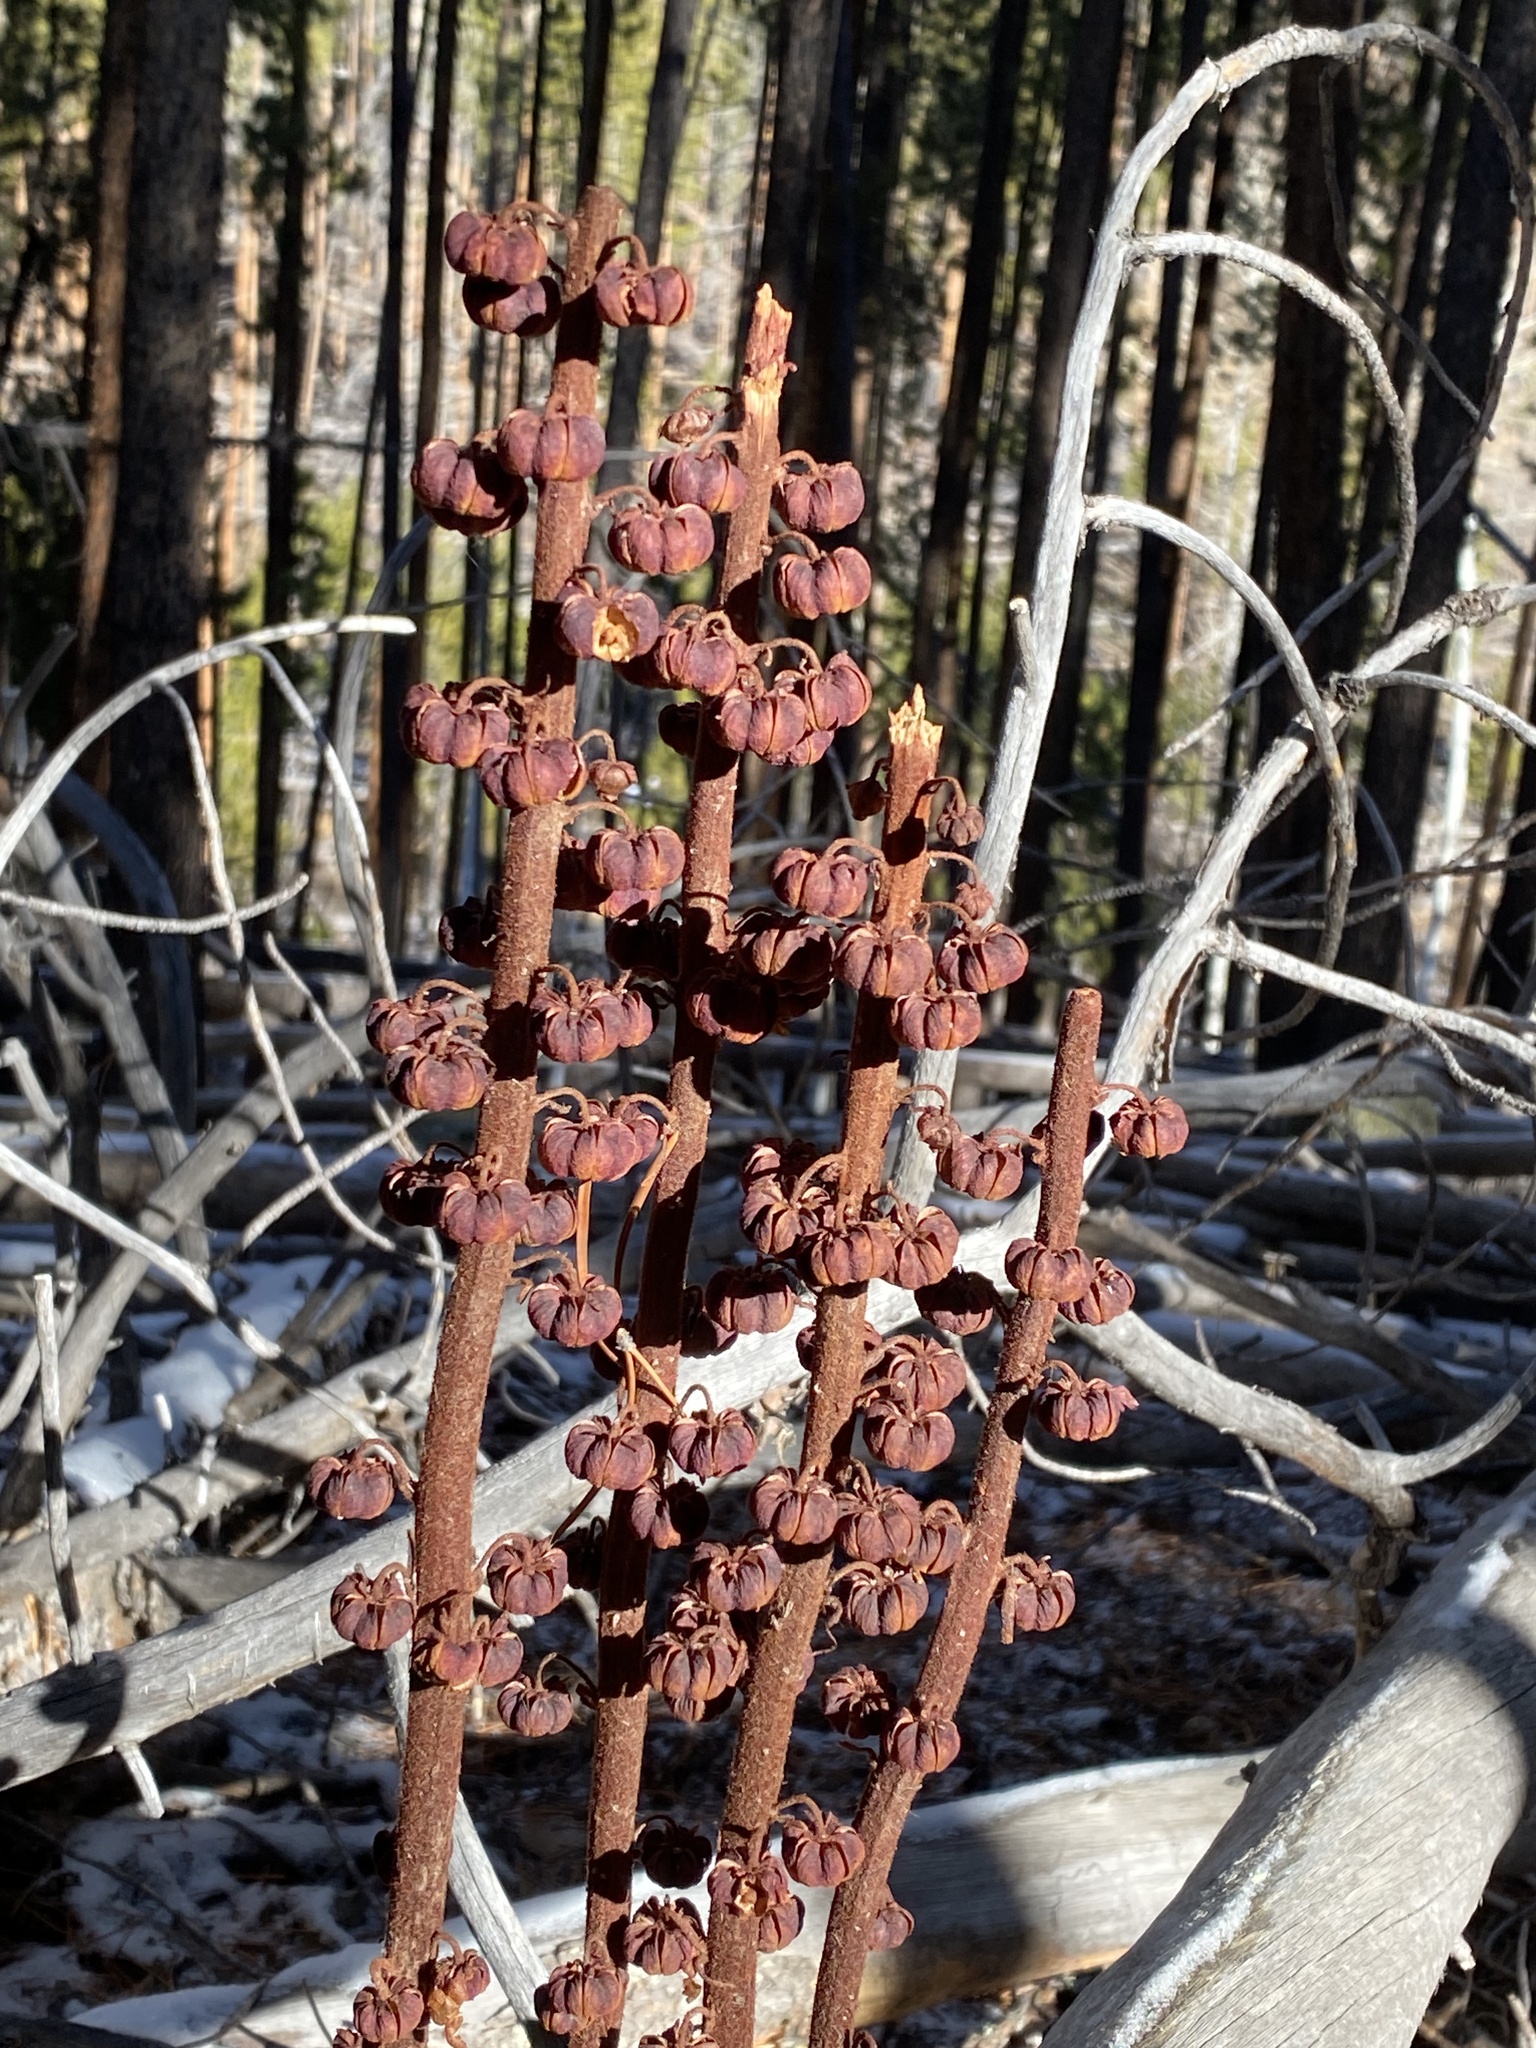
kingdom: Plantae
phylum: Tracheophyta
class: Magnoliopsida
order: Ericales
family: Ericaceae
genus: Pterospora
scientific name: Pterospora andromedea
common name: Giant bird's-nest
